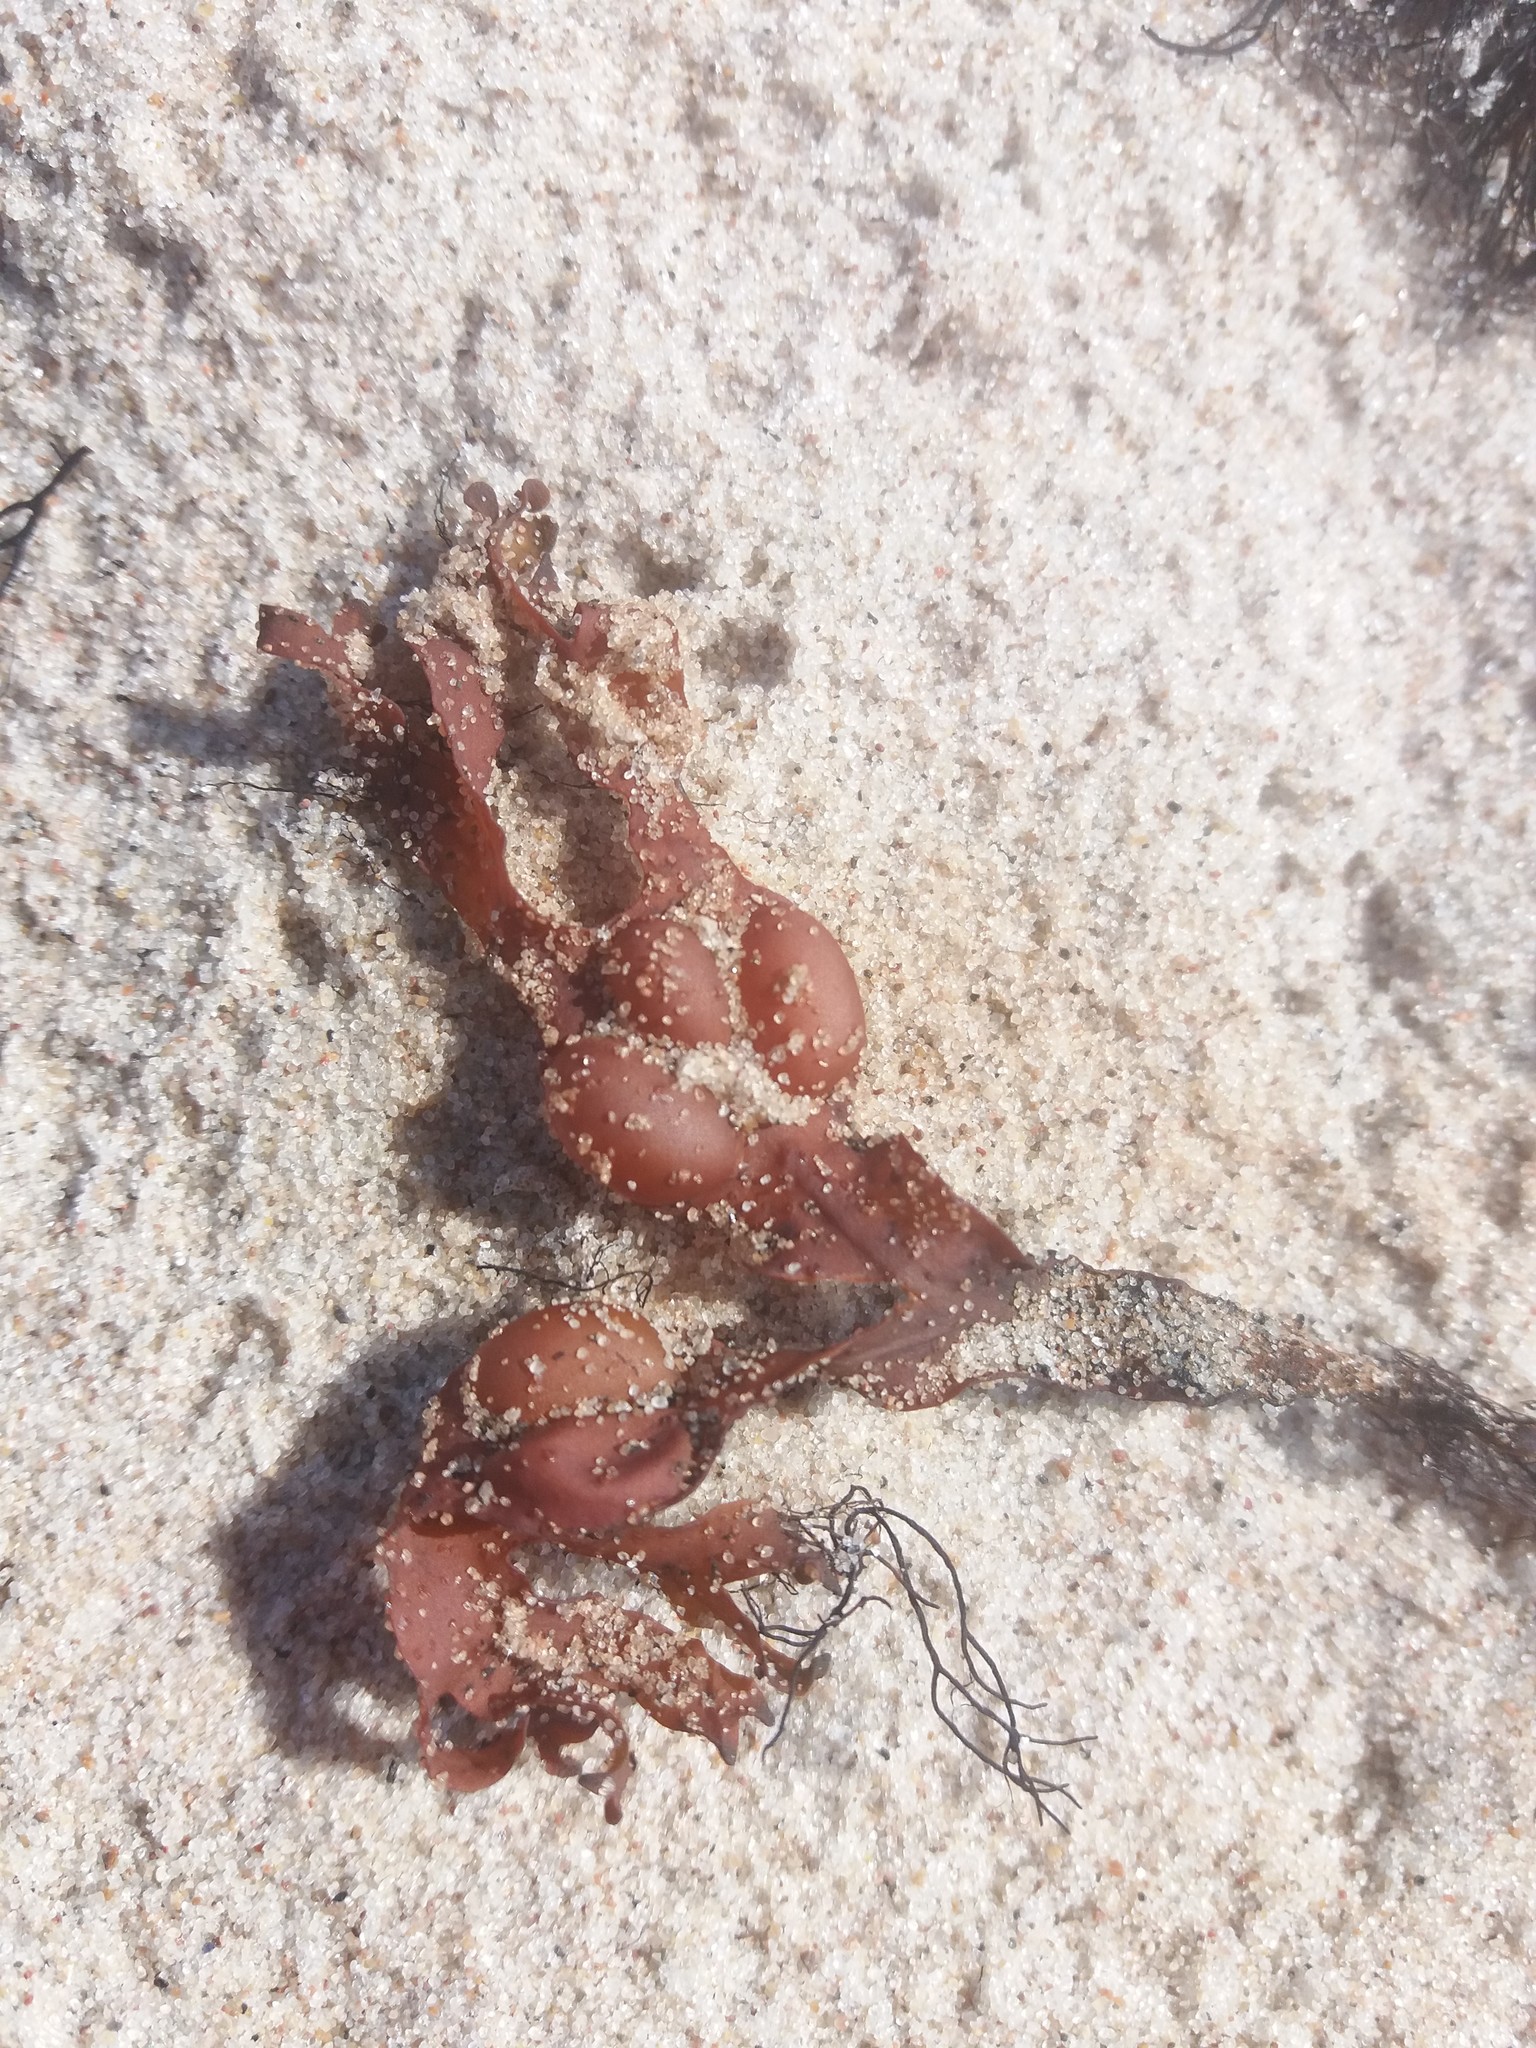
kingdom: Chromista
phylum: Ochrophyta
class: Phaeophyceae
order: Fucales
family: Fucaceae
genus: Fucus
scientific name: Fucus vesiculosus
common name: Bladder wrack
